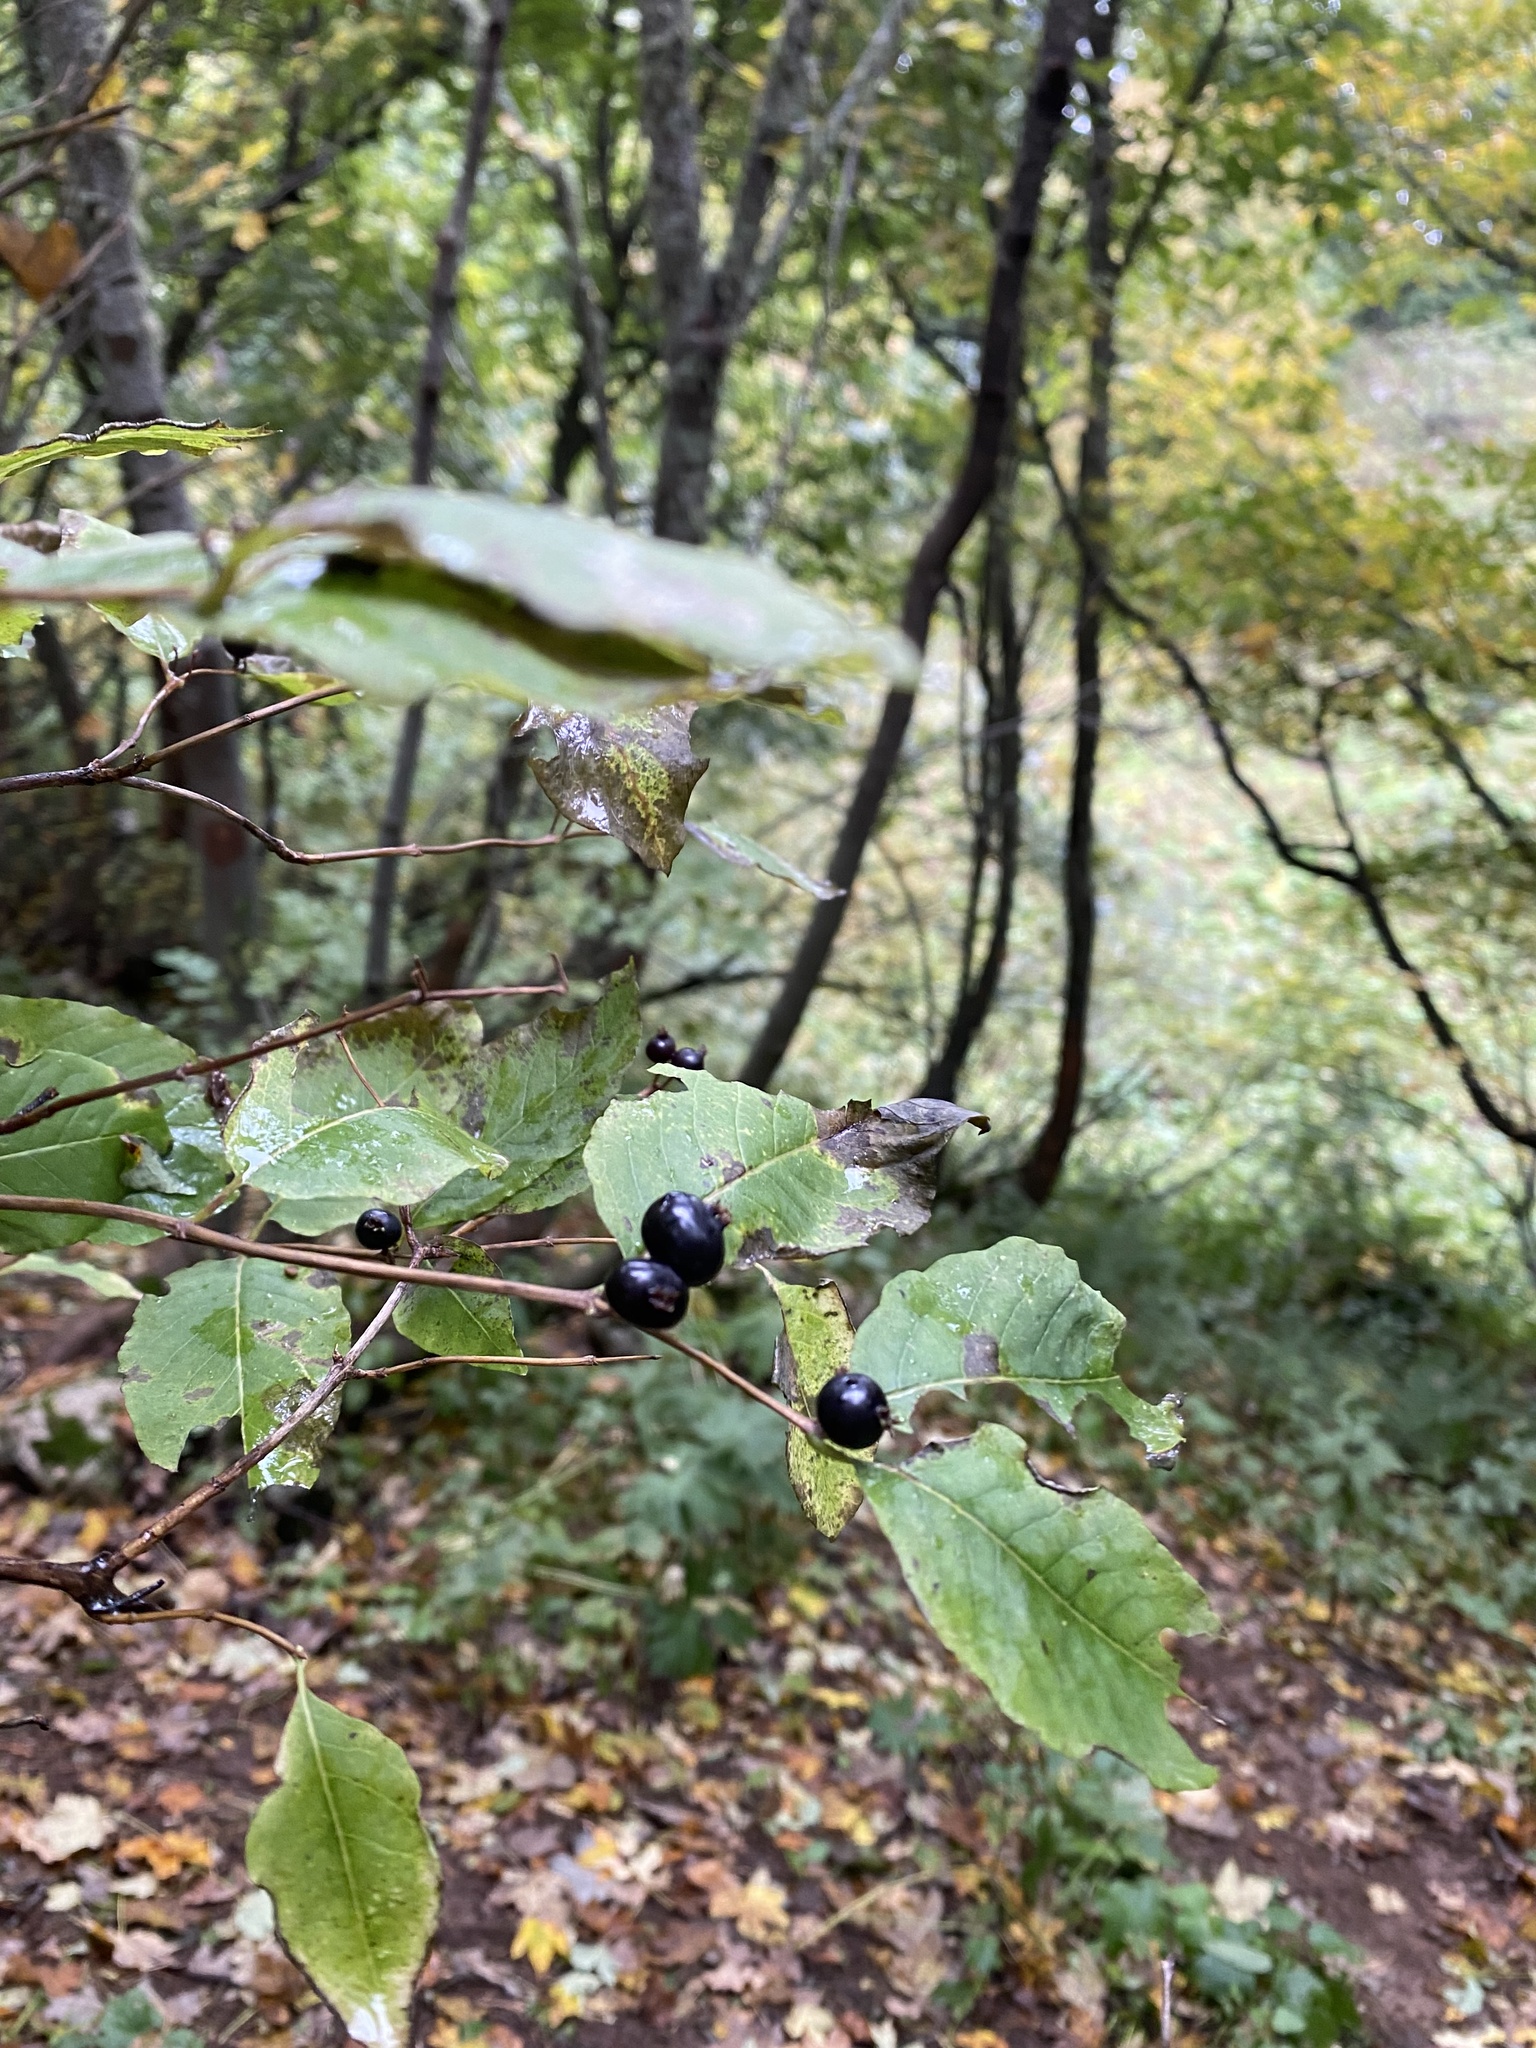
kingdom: Plantae
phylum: Tracheophyta
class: Magnoliopsida
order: Rosales
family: Rhamnaceae
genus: Frangula
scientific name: Frangula alnus
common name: Alder buckthorn
